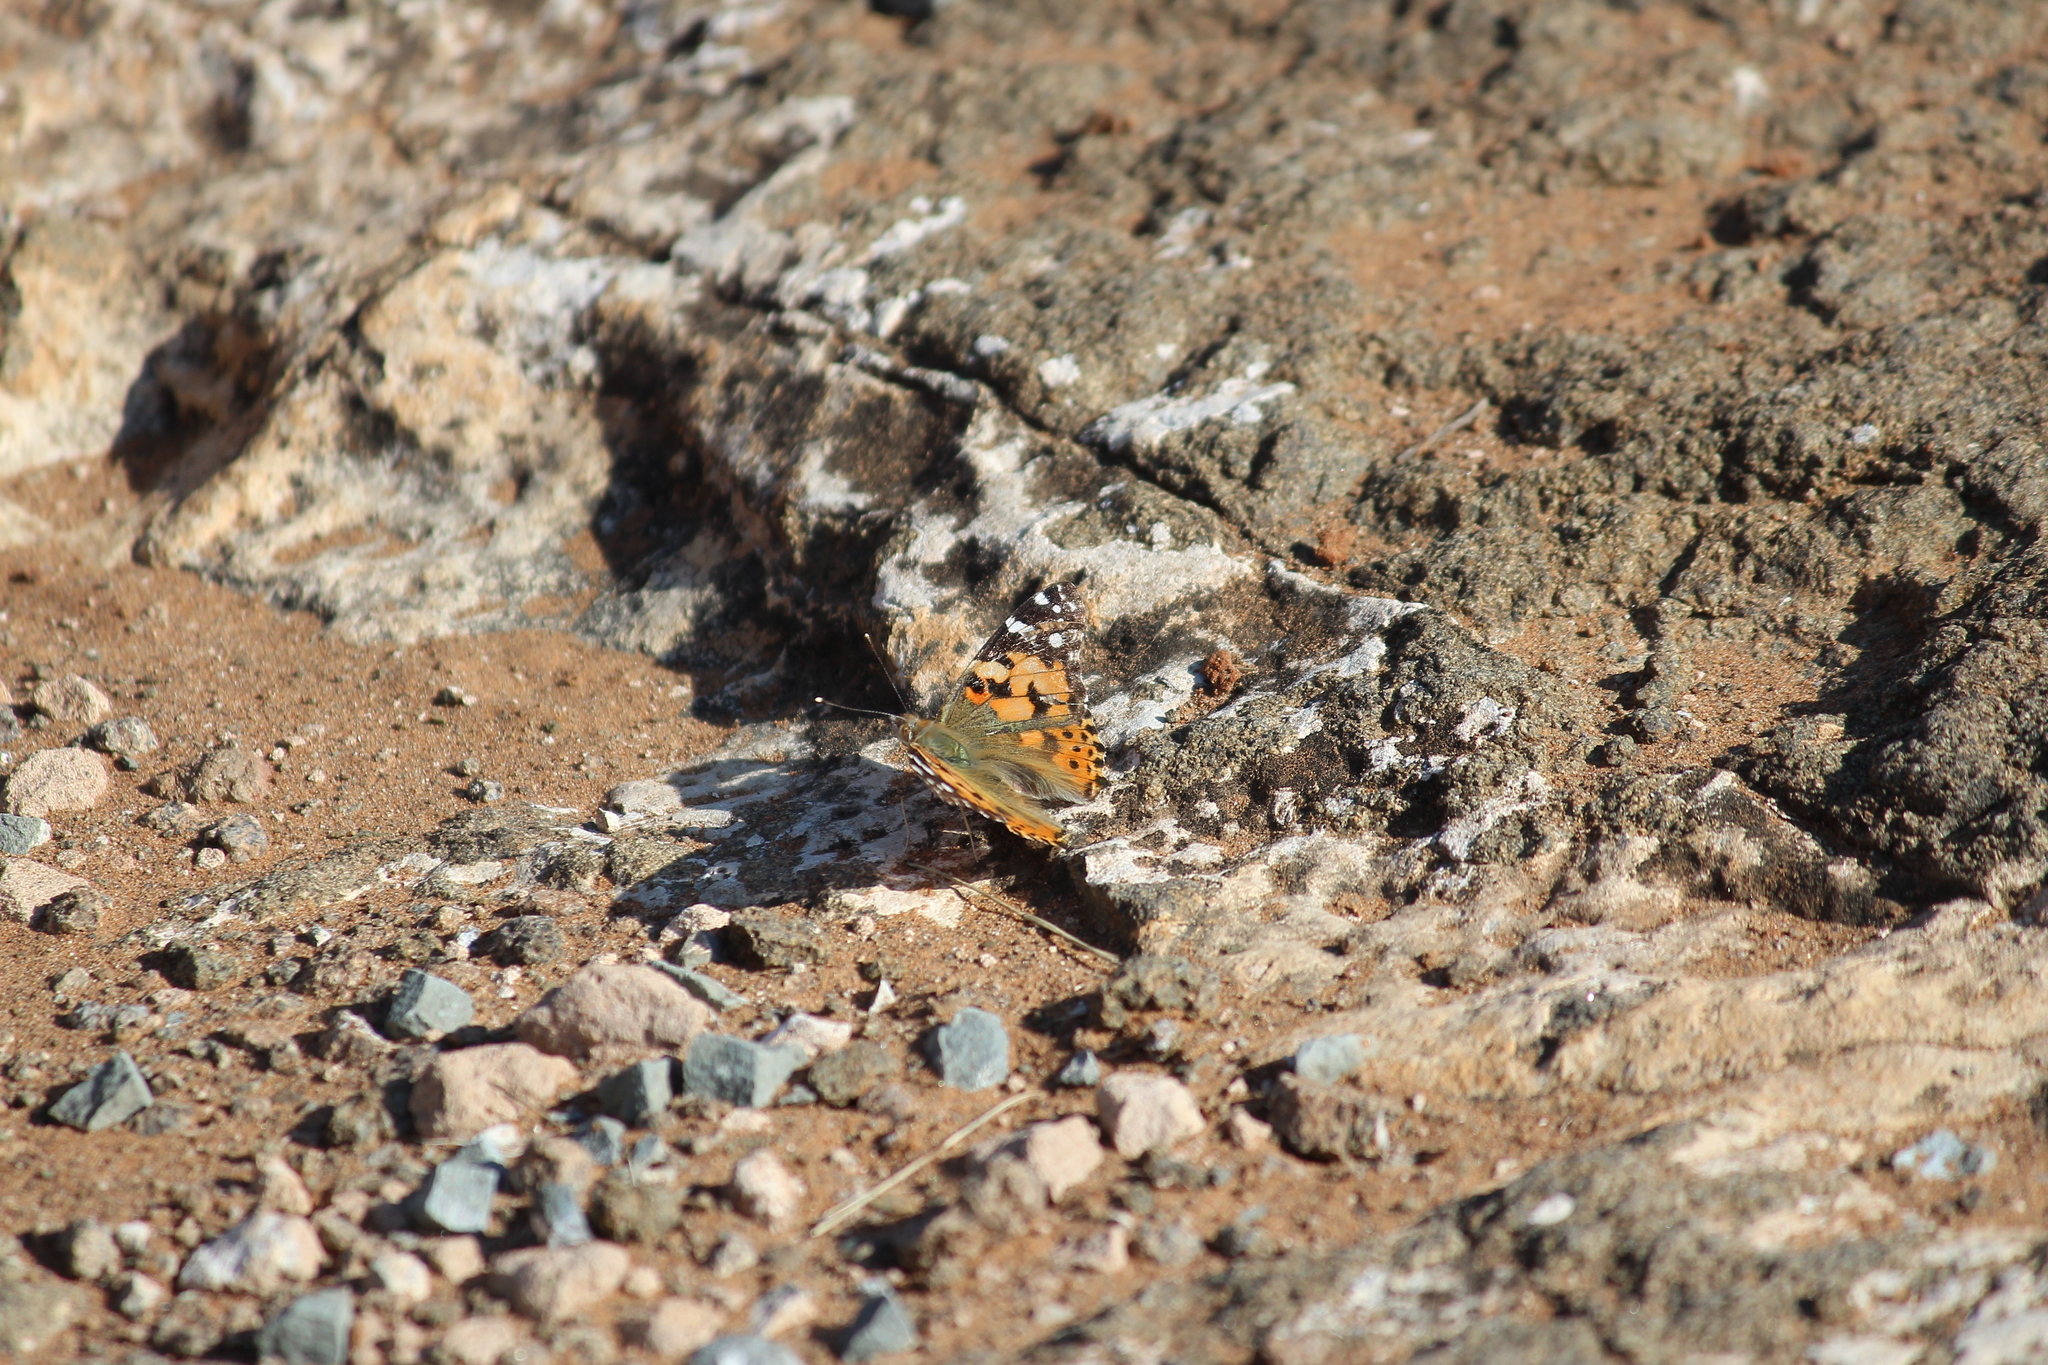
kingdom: Animalia
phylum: Arthropoda
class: Insecta
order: Lepidoptera
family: Nymphalidae
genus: Vanessa
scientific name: Vanessa cardui
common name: Painted lady
